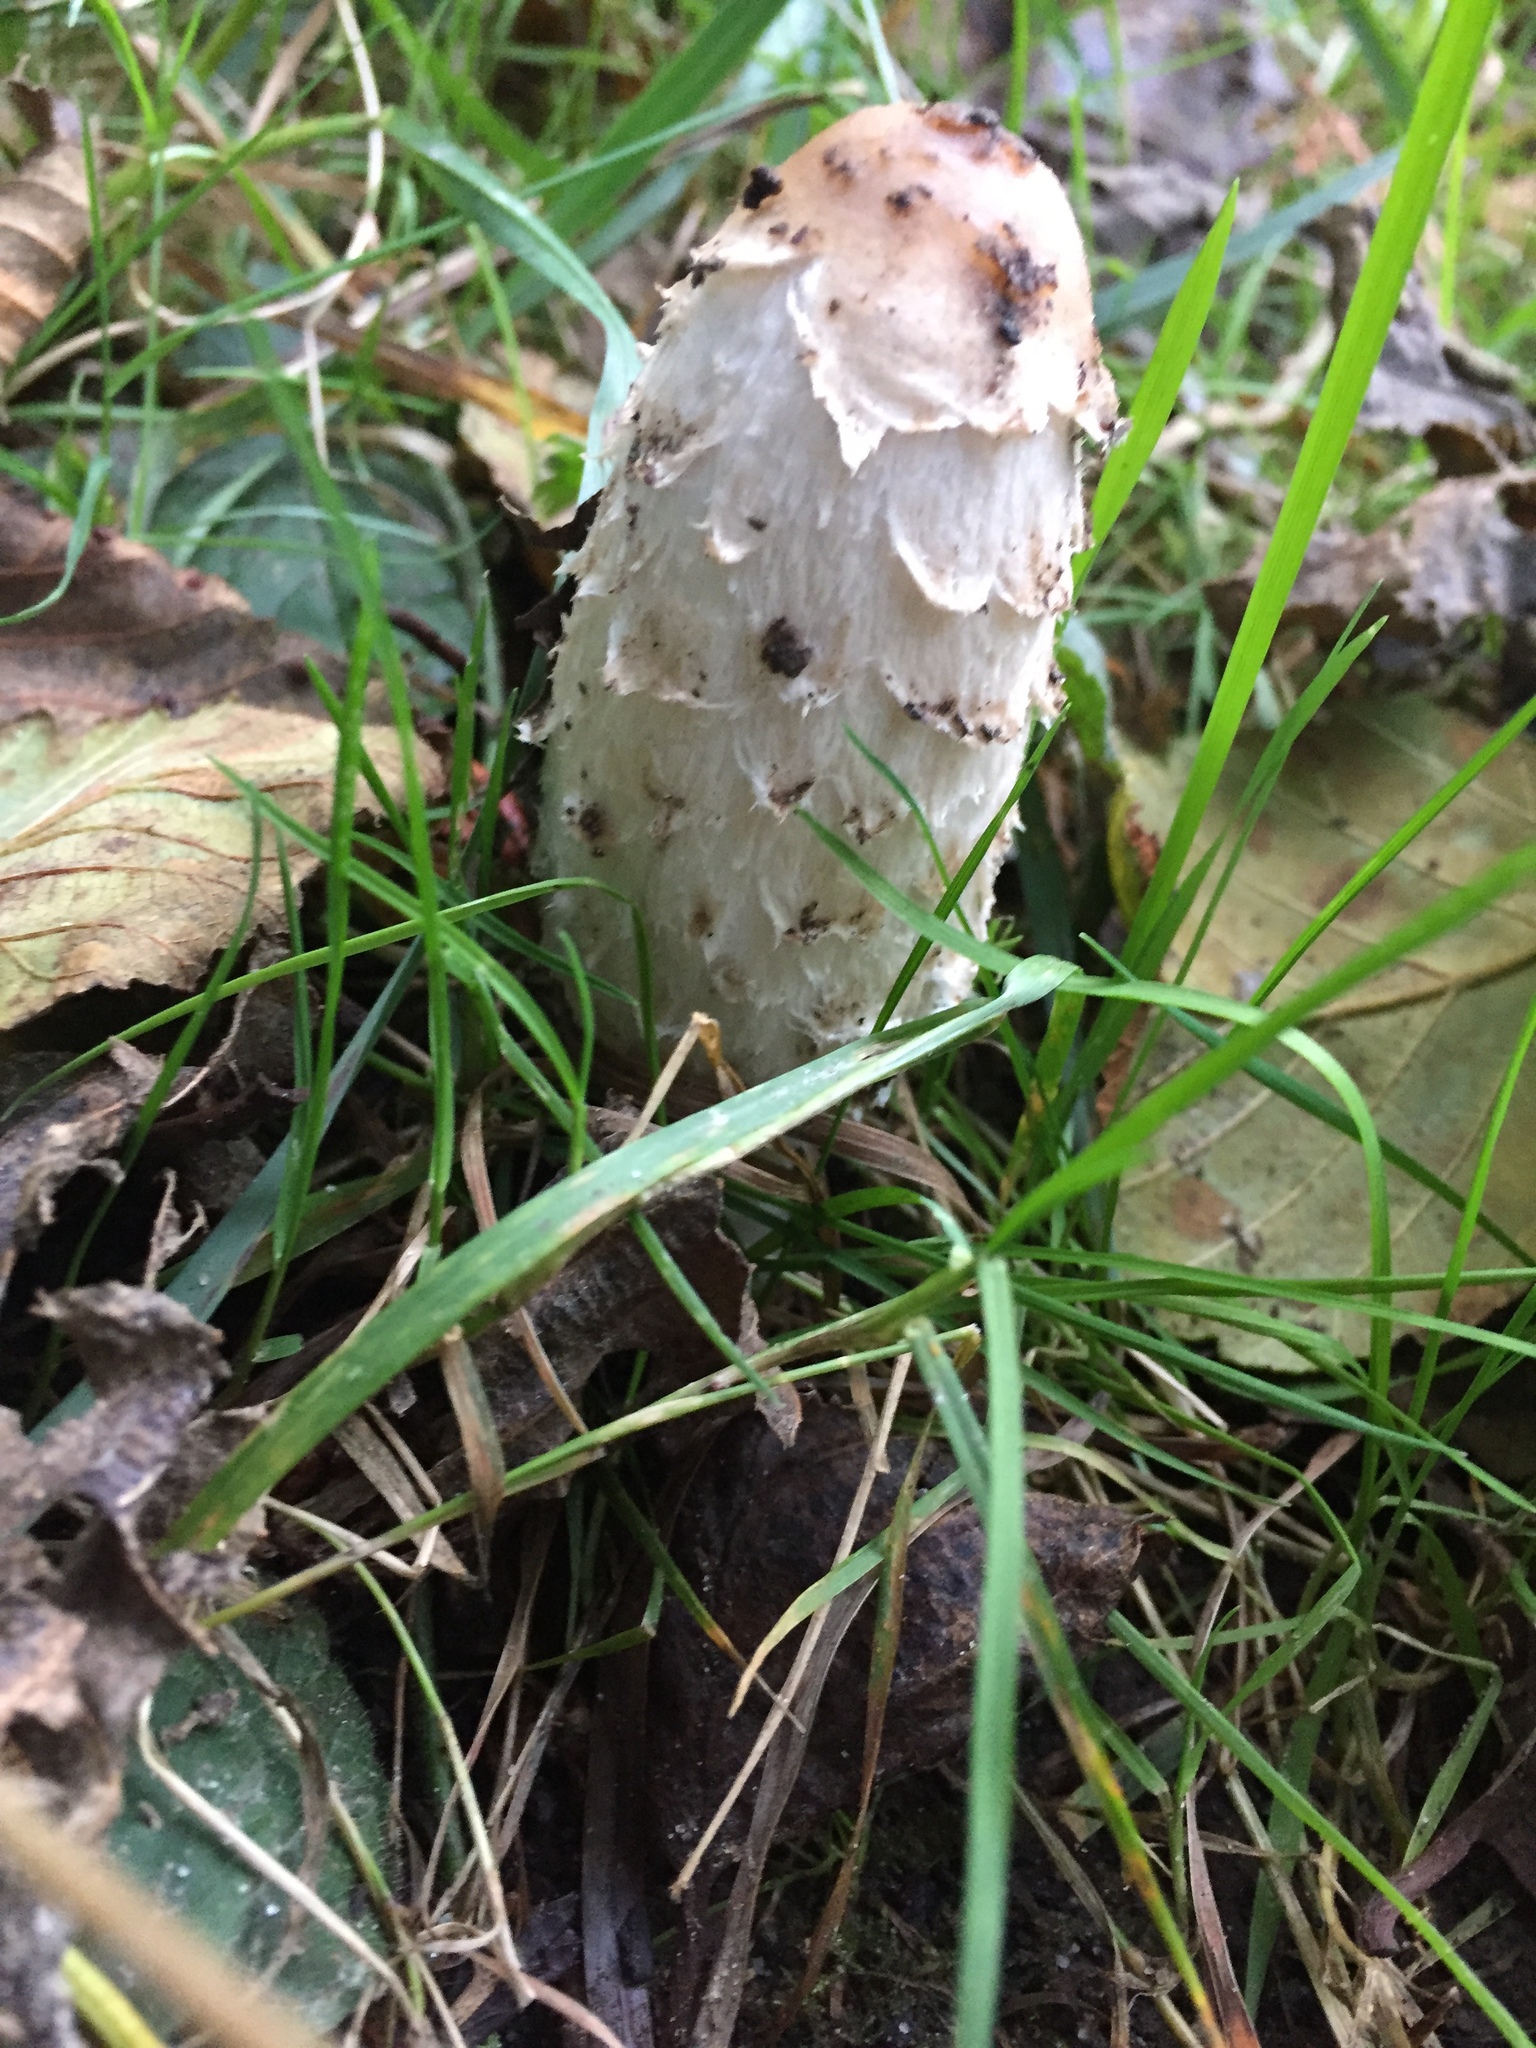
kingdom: Fungi
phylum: Basidiomycota
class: Agaricomycetes
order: Agaricales
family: Agaricaceae
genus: Coprinus
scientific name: Coprinus comatus
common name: Lawyer's wig
